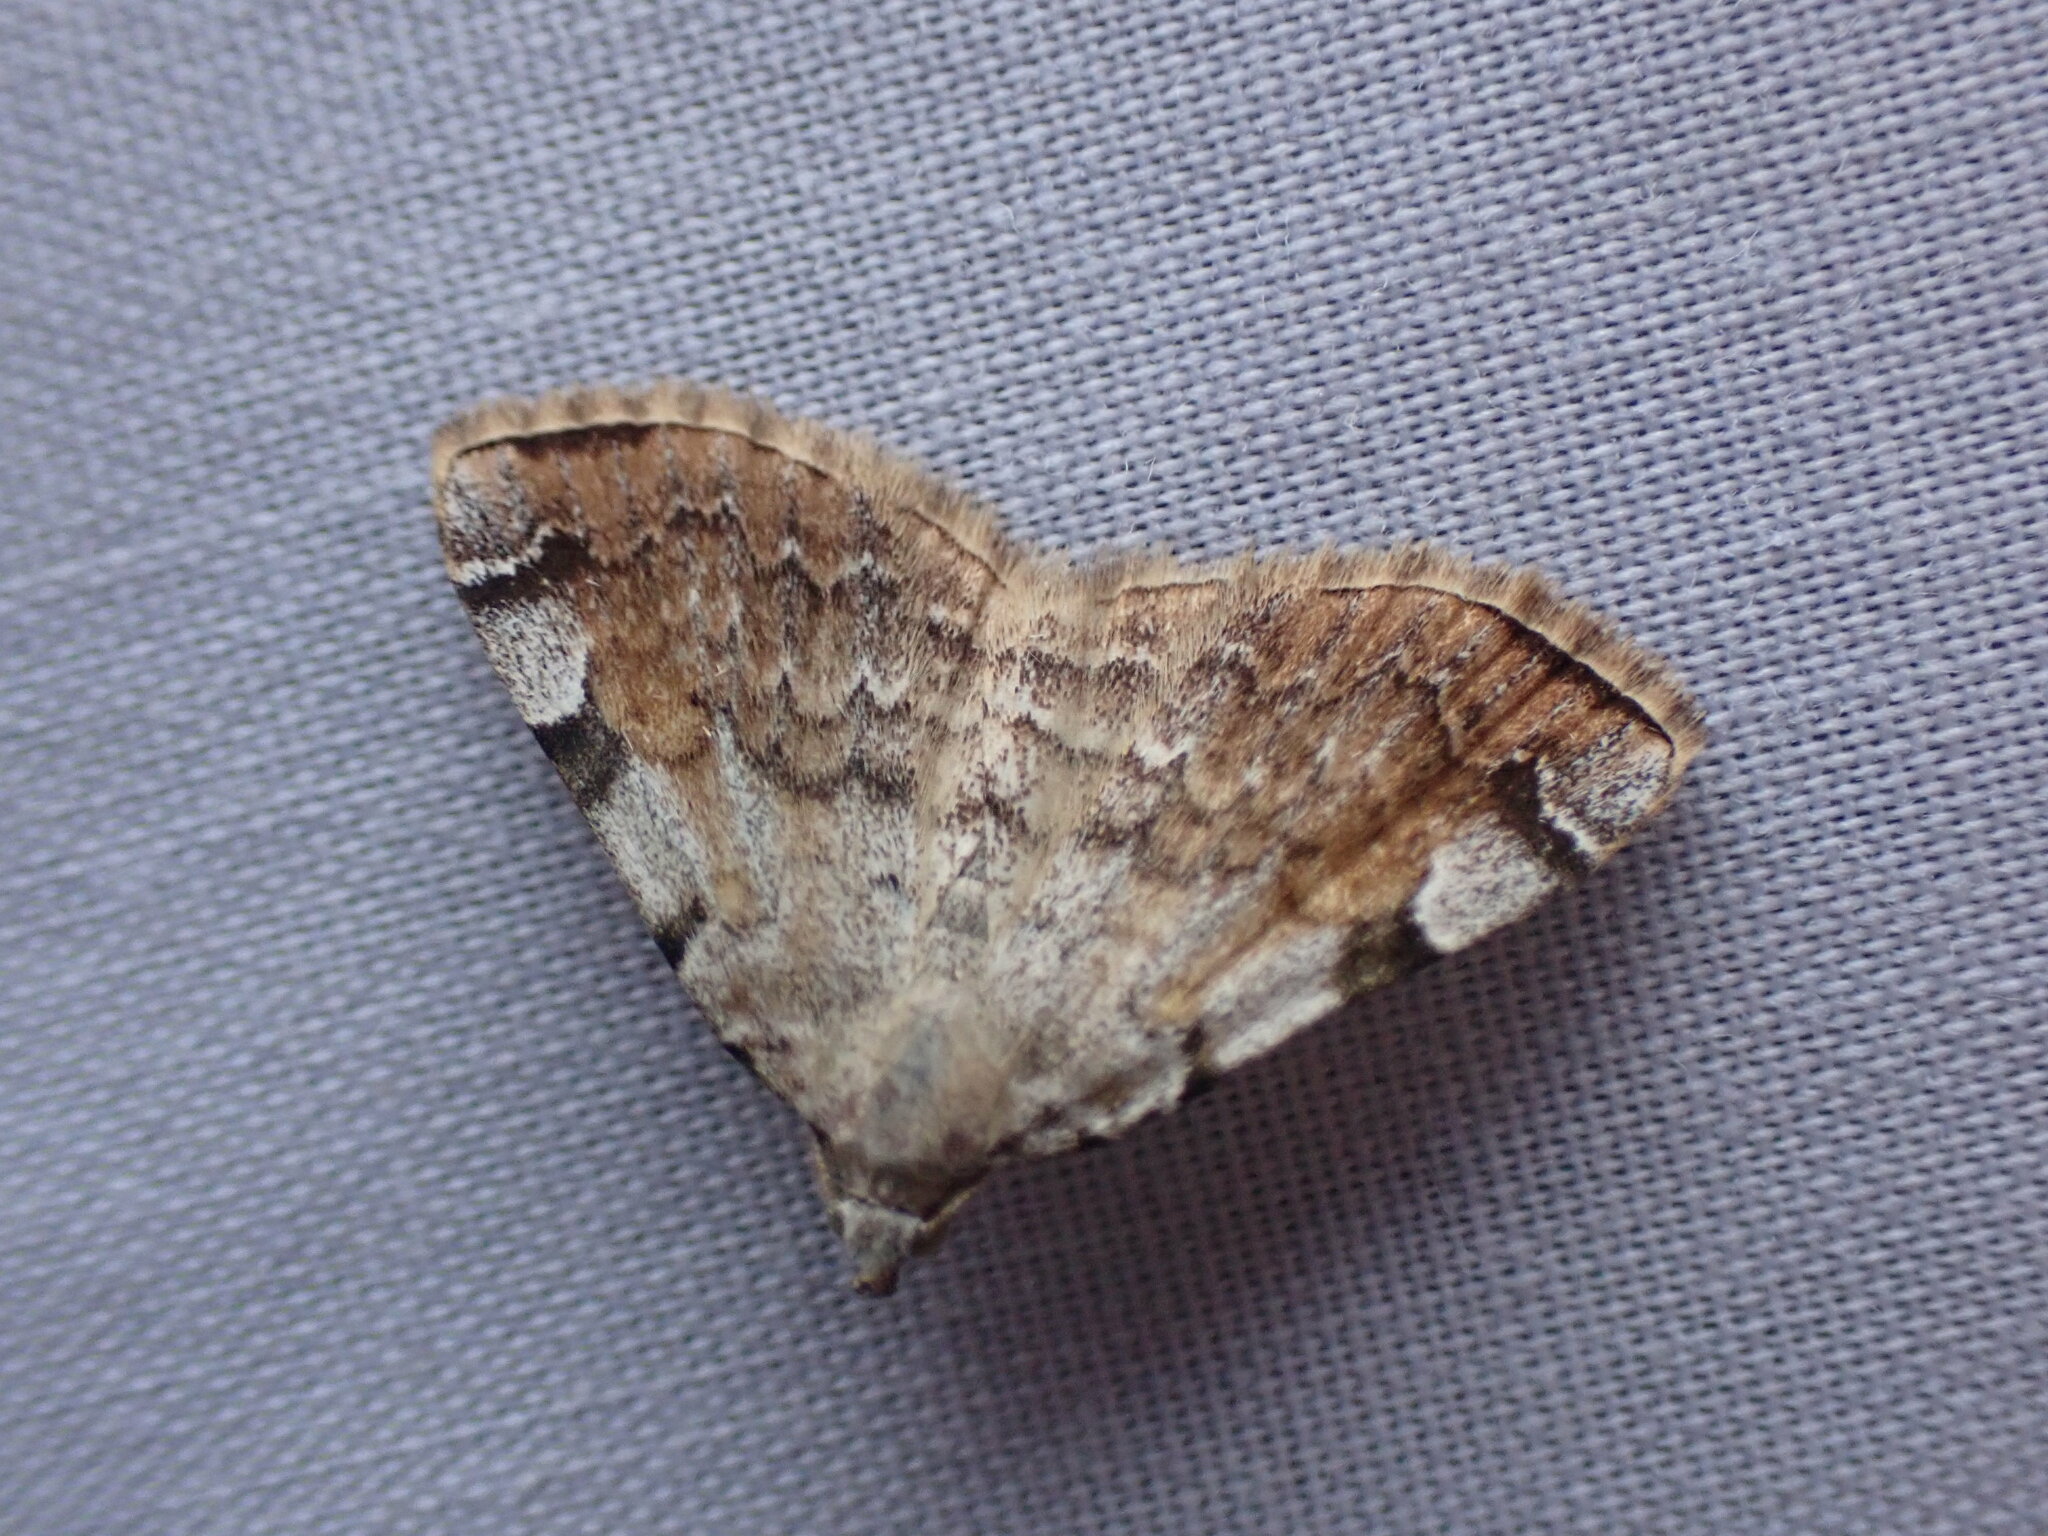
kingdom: Animalia
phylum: Arthropoda
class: Insecta
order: Lepidoptera
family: Erebidae
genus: Idia
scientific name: Idia americalis
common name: American idia moth
